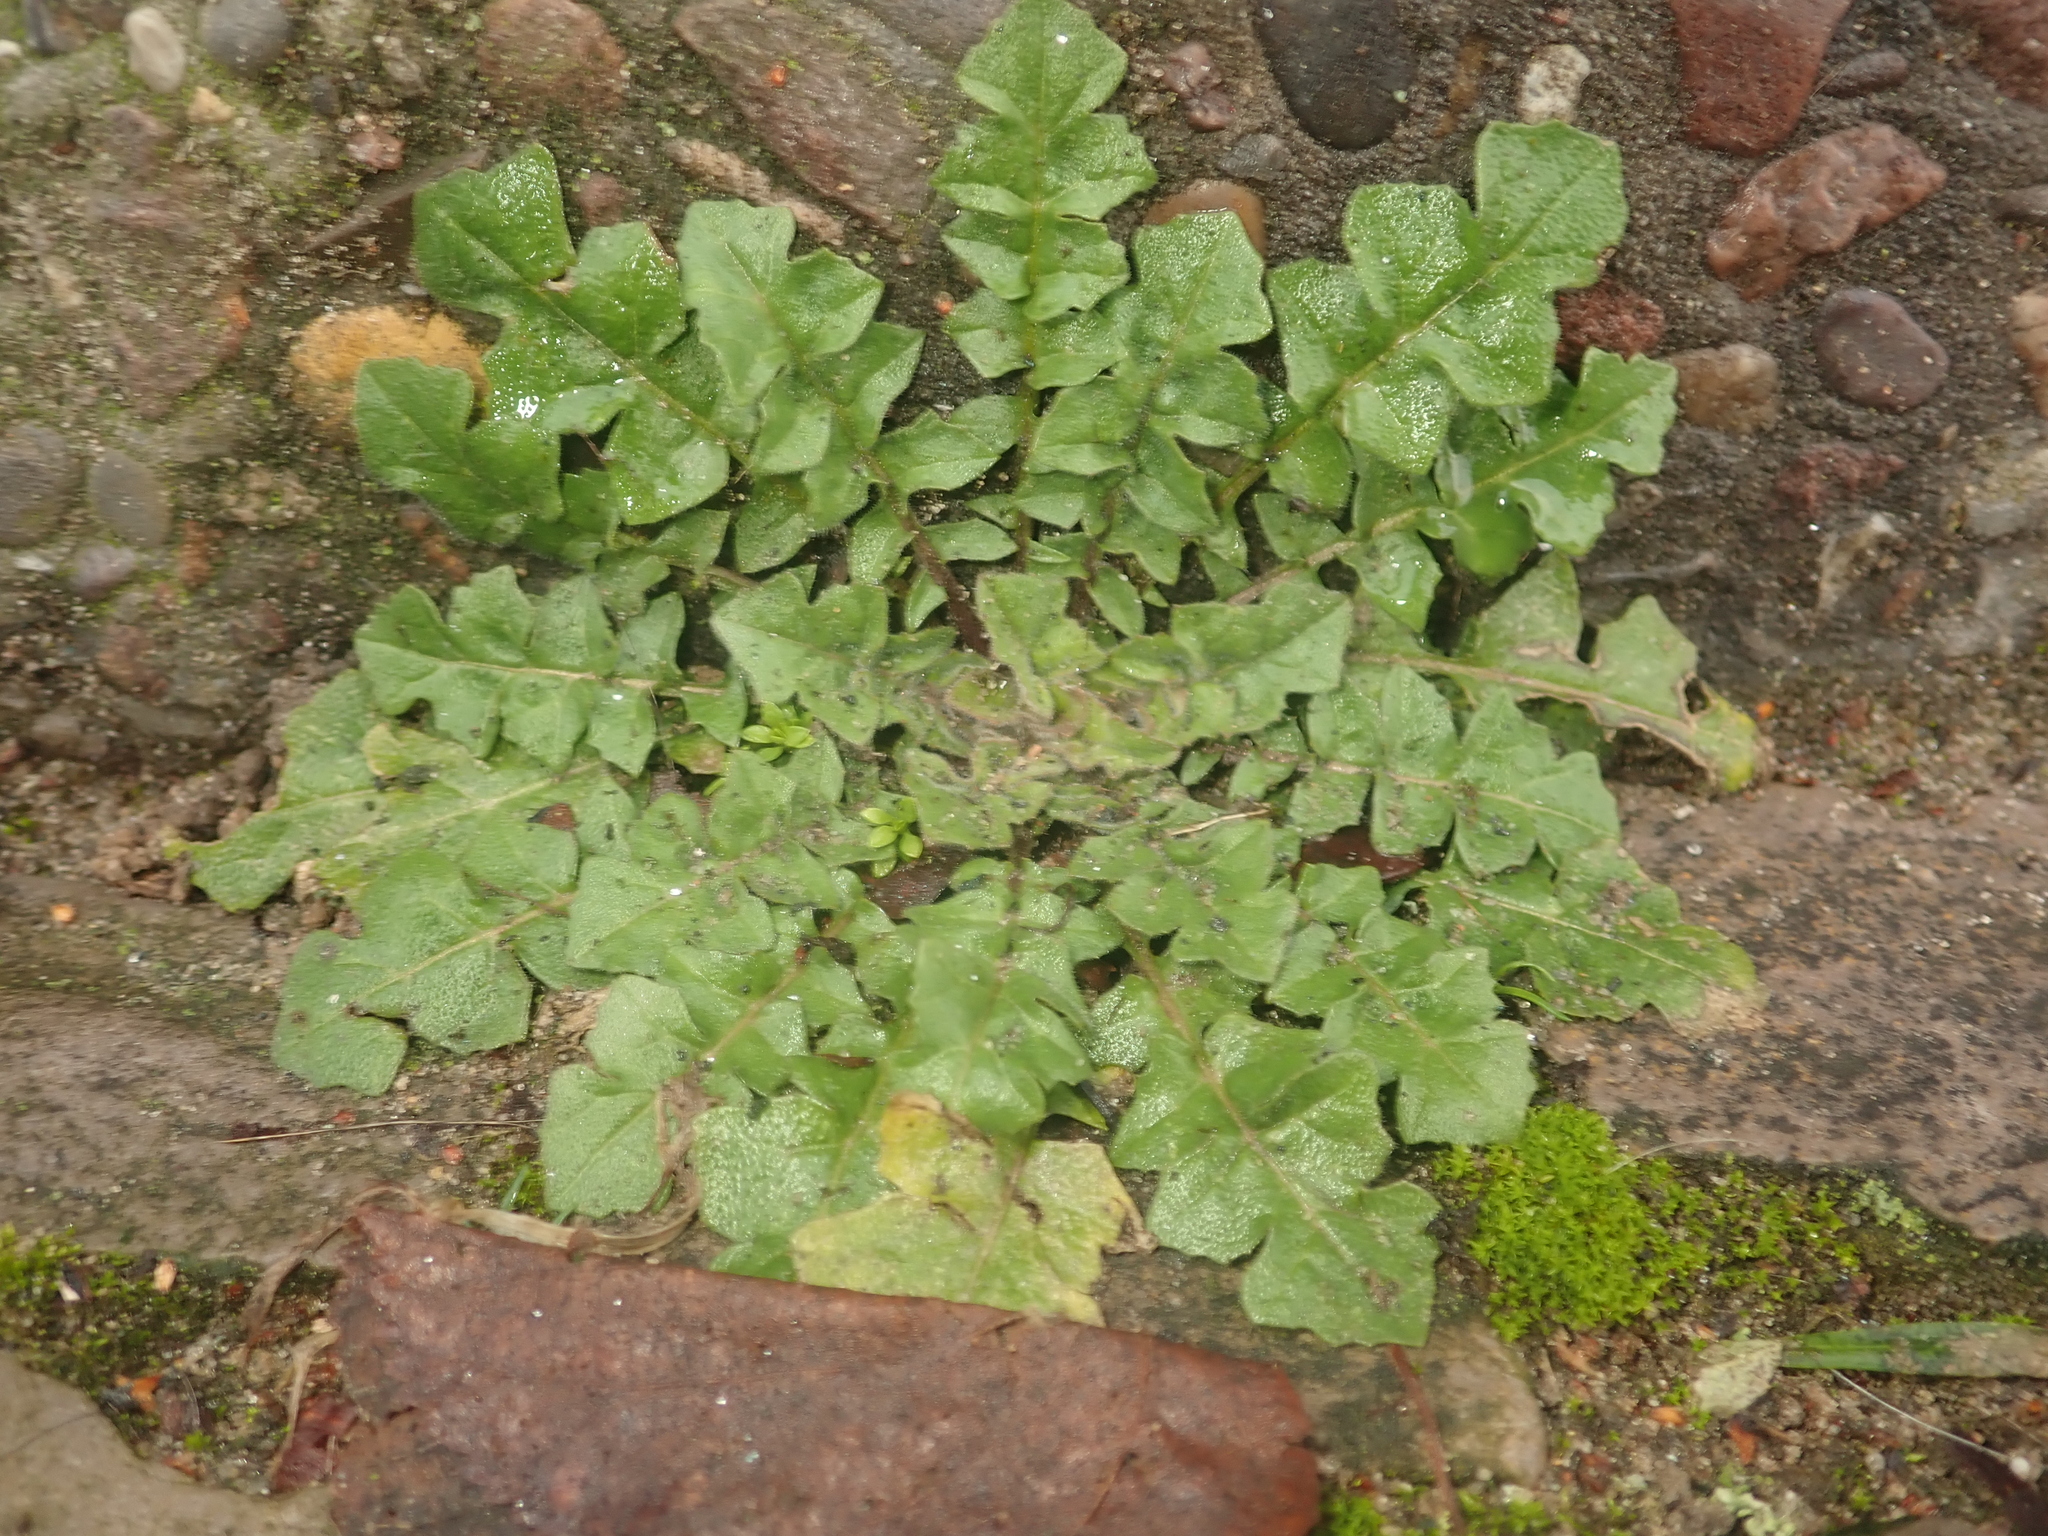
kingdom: Plantae
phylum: Tracheophyta
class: Magnoliopsida
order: Brassicales
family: Brassicaceae
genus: Capsella
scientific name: Capsella bursa-pastoris
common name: Shepherd's purse
